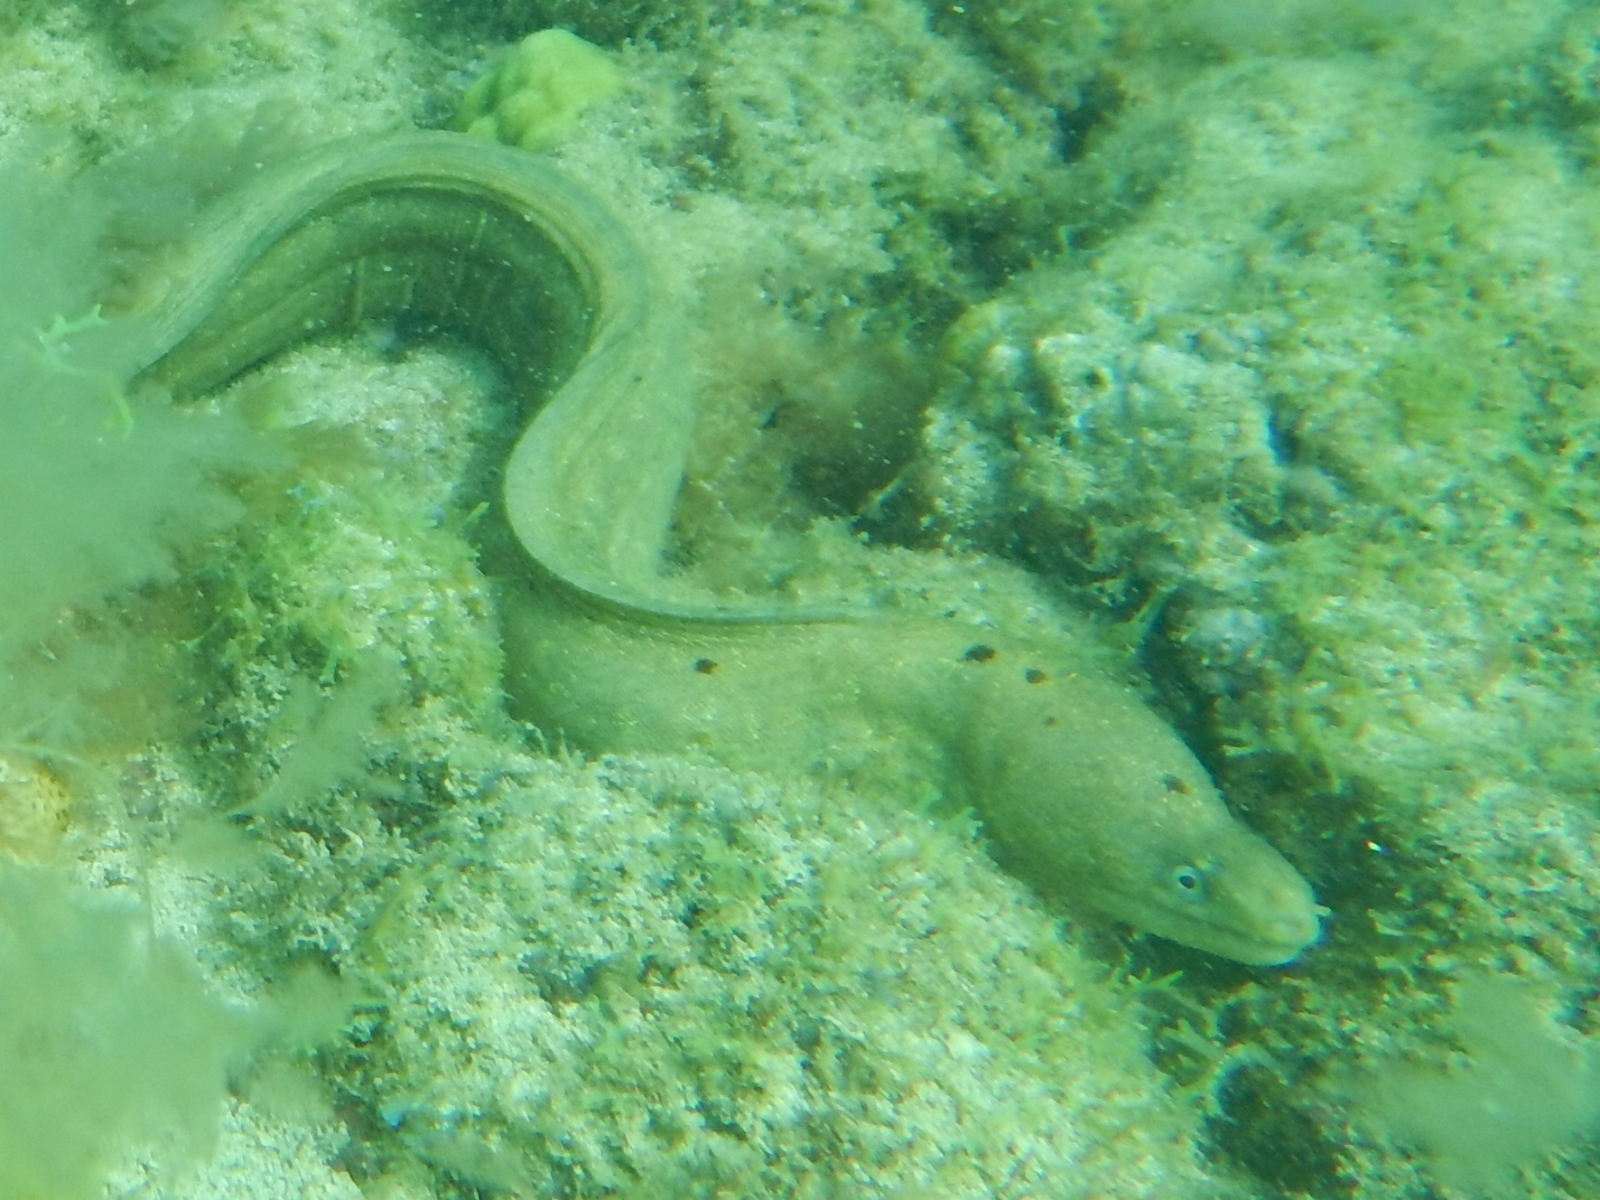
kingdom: Animalia
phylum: Chordata
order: Anguilliformes
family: Muraenidae
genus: Echidna
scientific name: Echidna peli
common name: Pebbletooth moray
